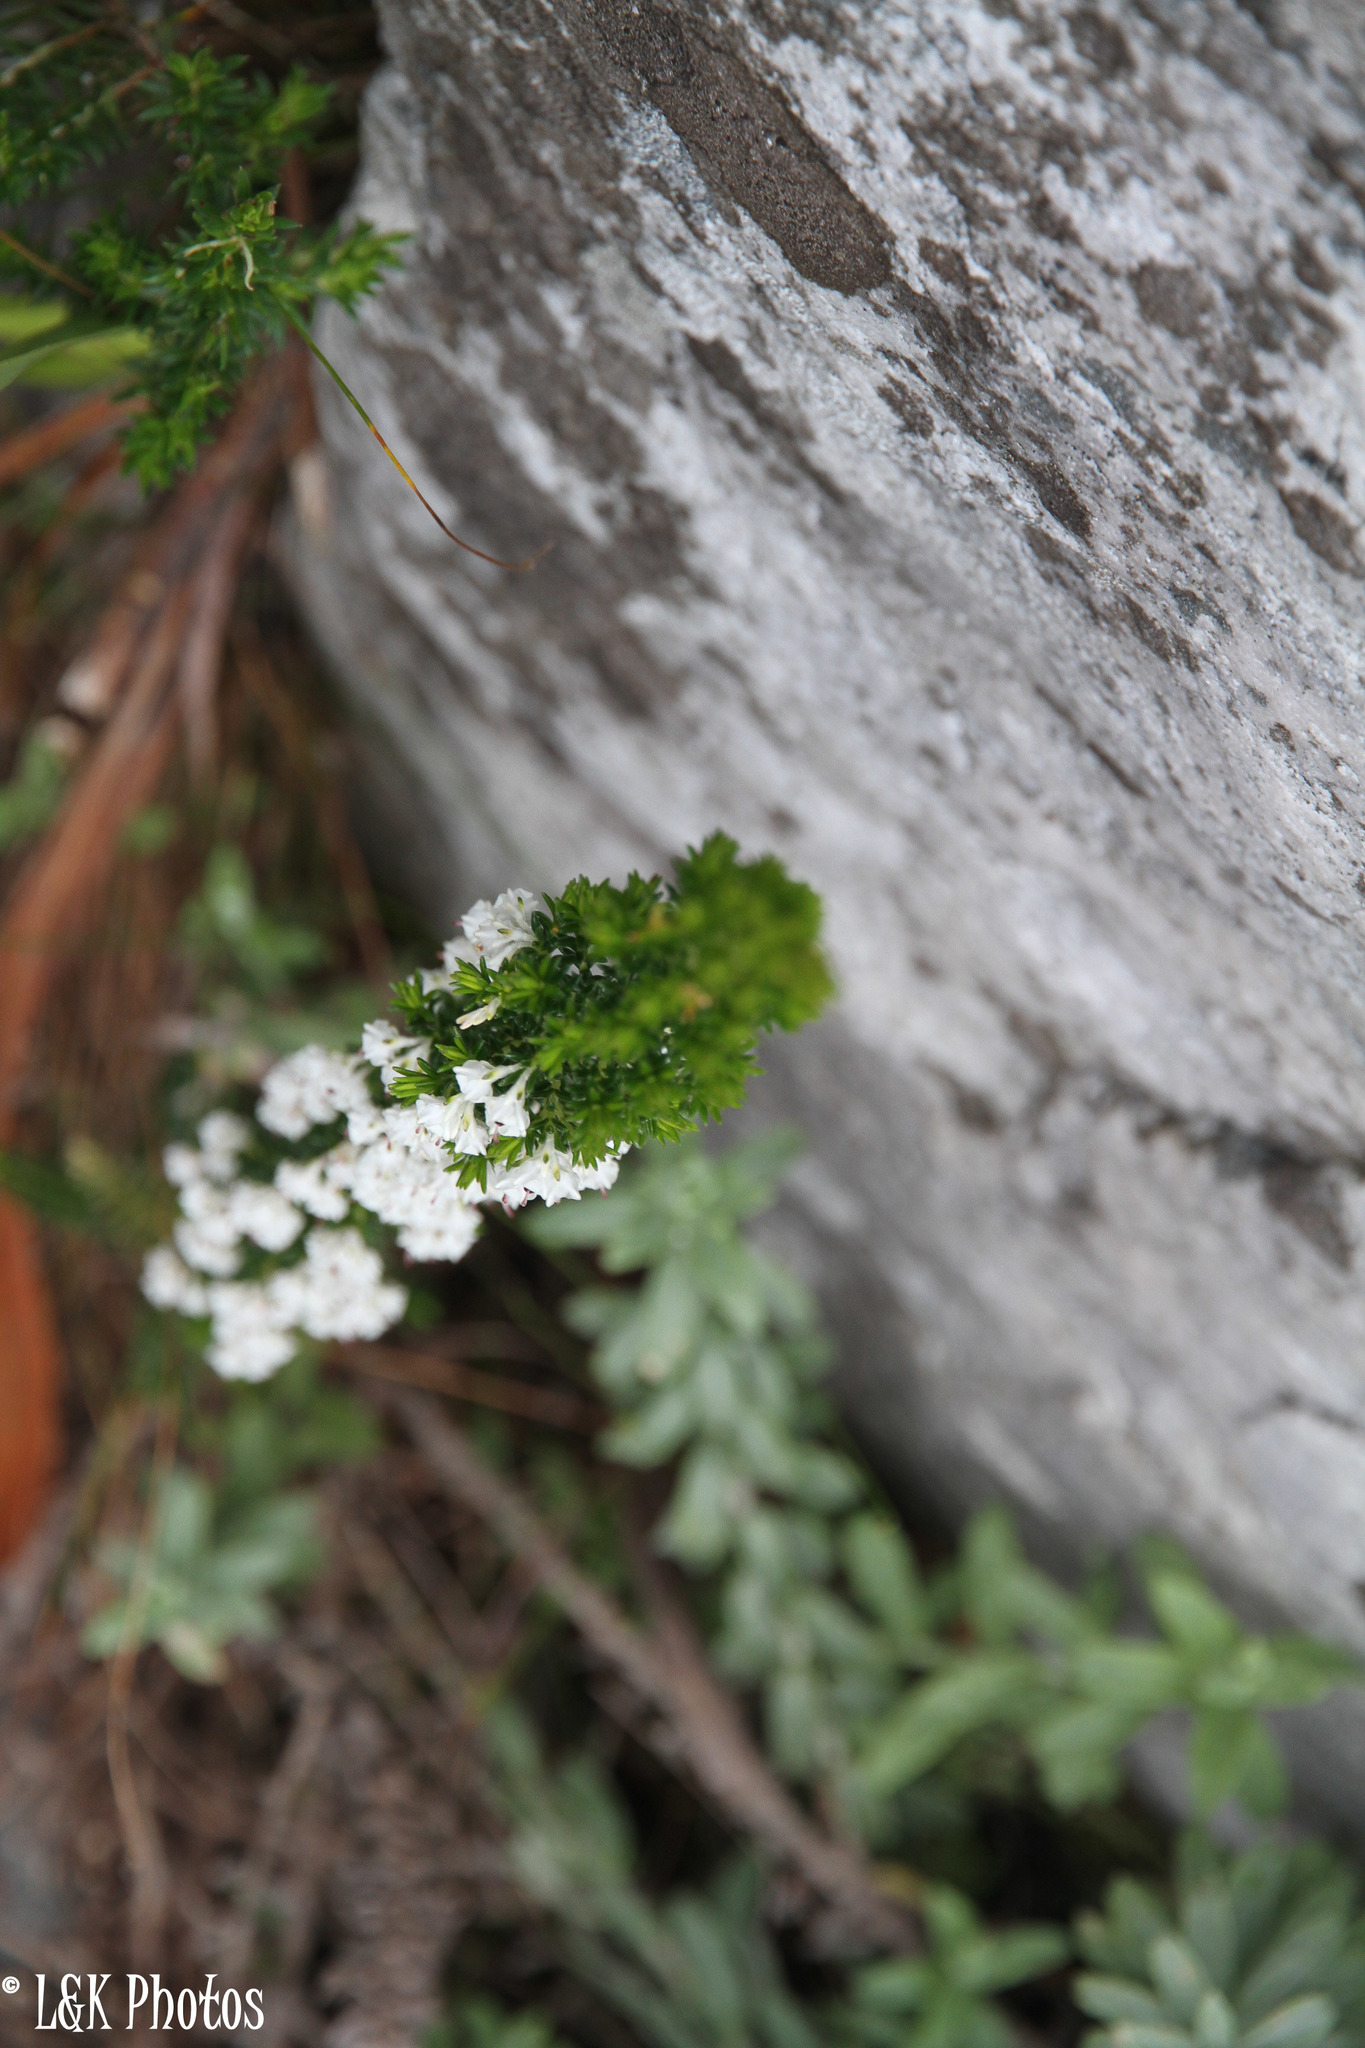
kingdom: Plantae
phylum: Tracheophyta
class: Magnoliopsida
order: Ericales
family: Ericaceae
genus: Erica
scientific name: Erica calycina
